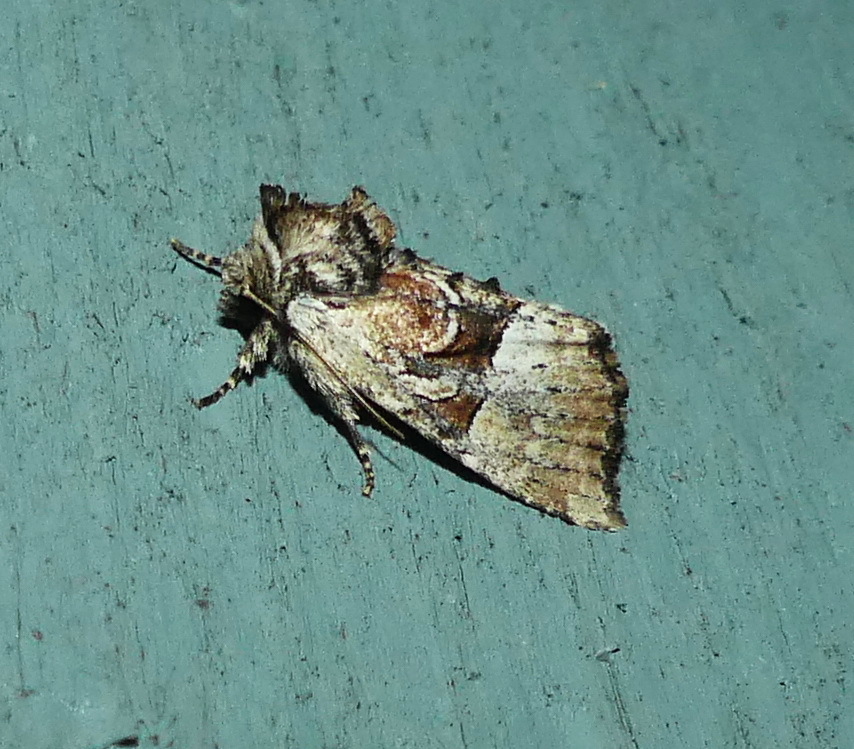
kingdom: Animalia
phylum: Arthropoda
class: Insecta
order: Lepidoptera
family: Noctuidae
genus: Meropleon
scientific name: Meropleon diversicolor
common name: Multicolored sedgeminer moth
